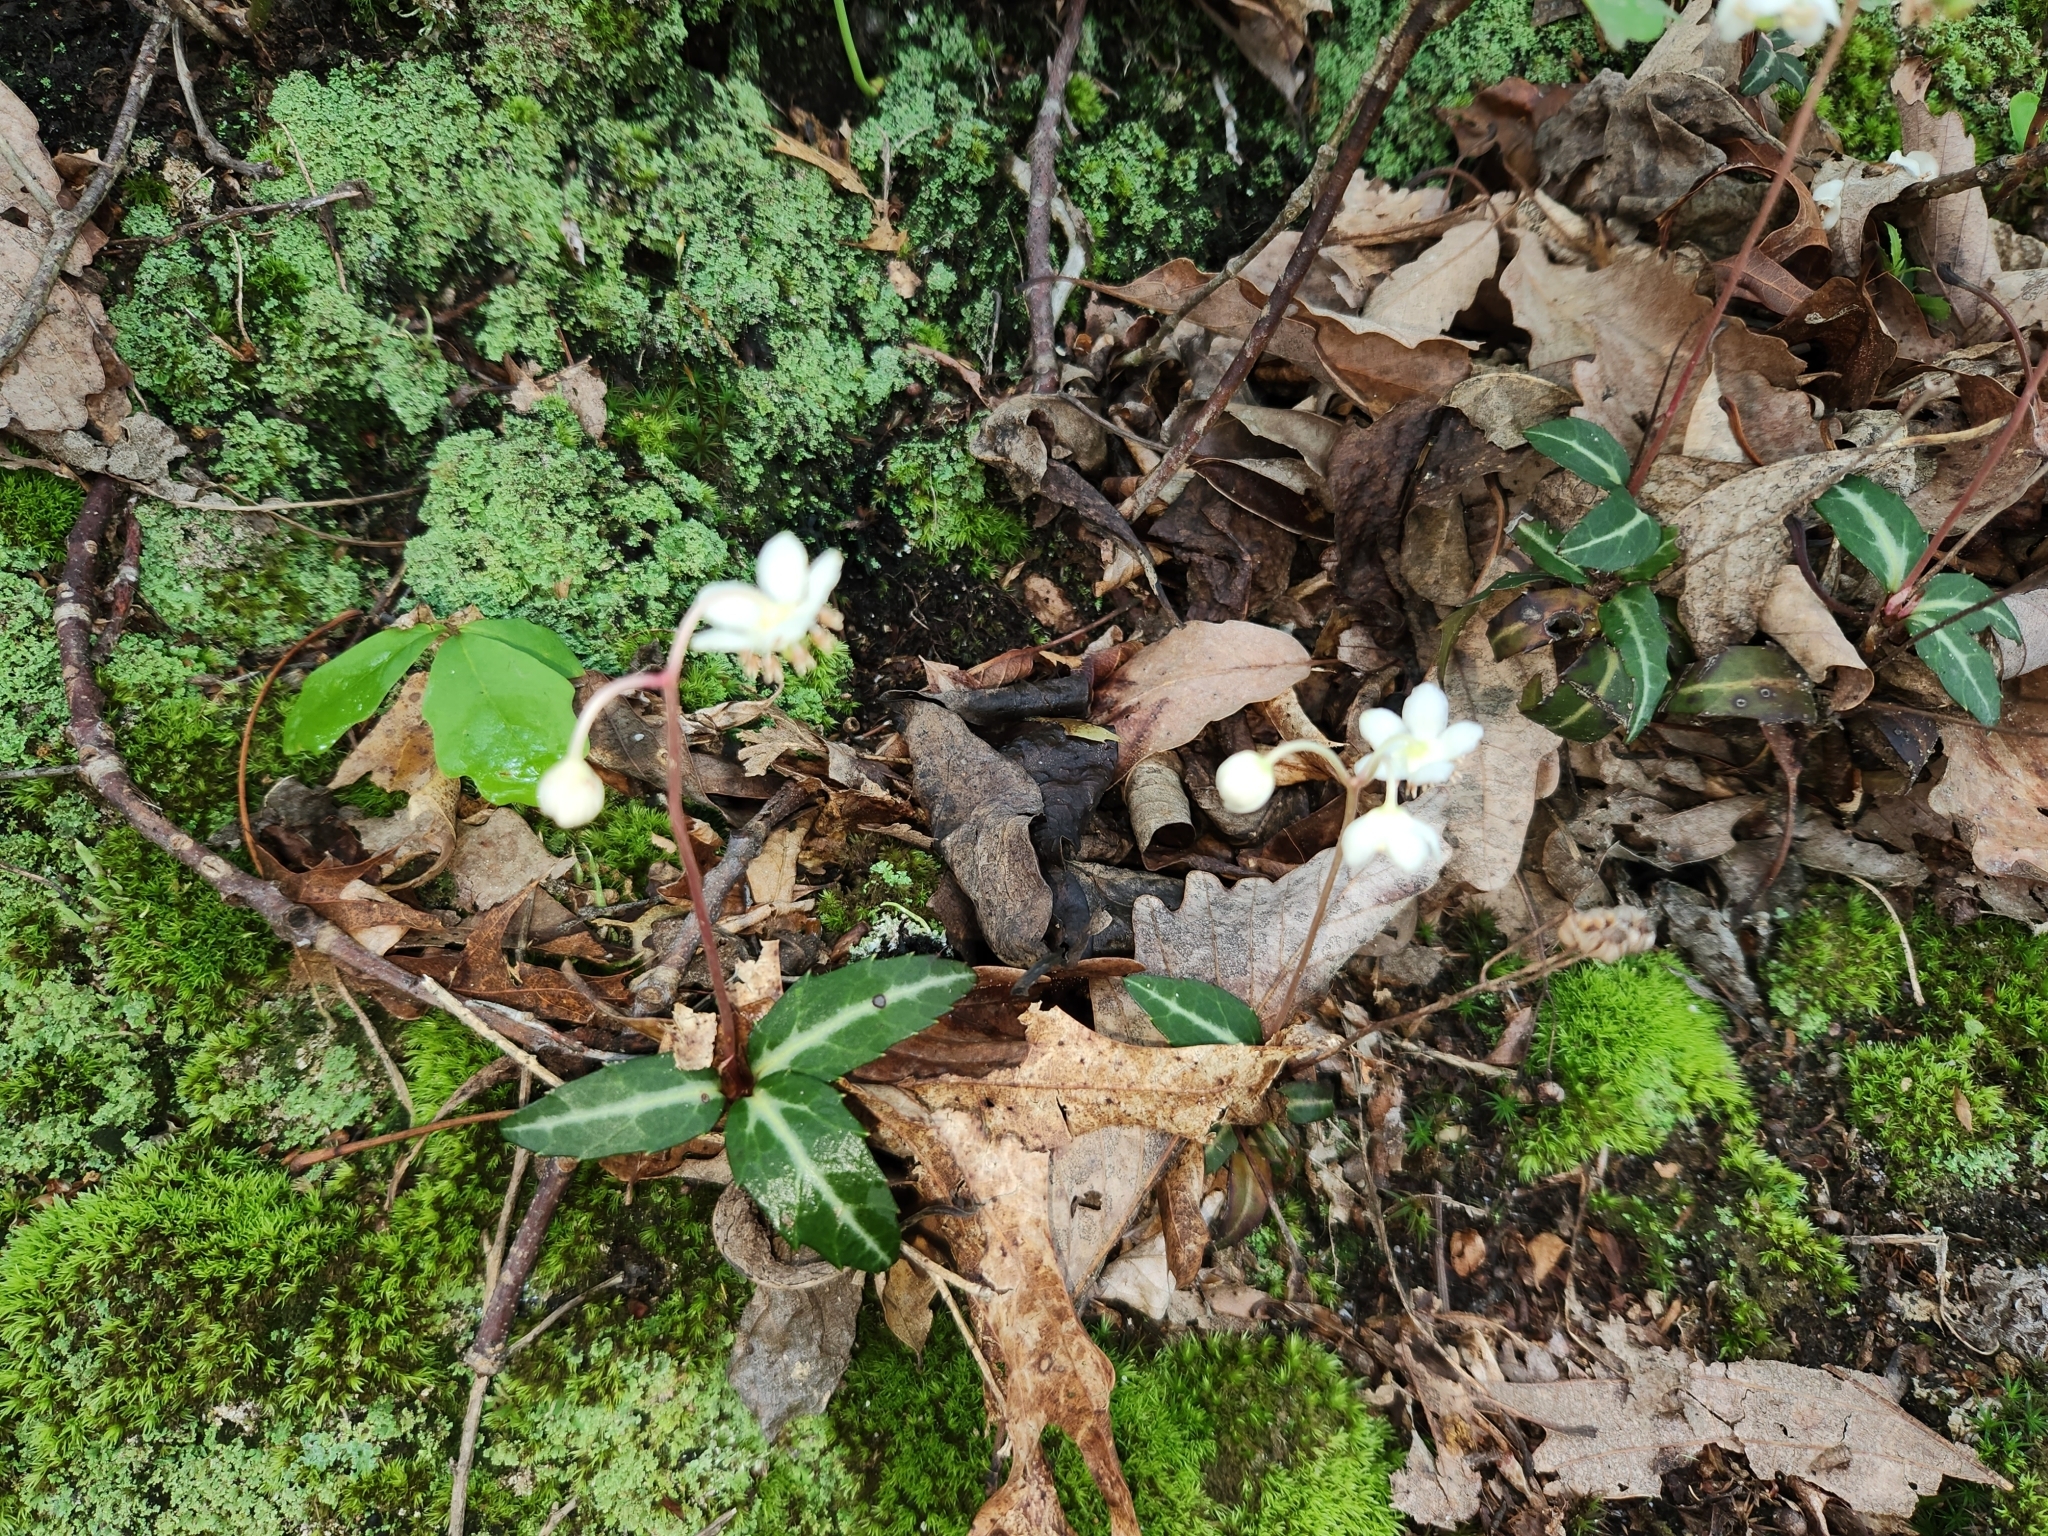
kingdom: Plantae
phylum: Tracheophyta
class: Magnoliopsida
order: Ericales
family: Ericaceae
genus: Chimaphila
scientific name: Chimaphila maculata
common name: Spotted pipsissewa
